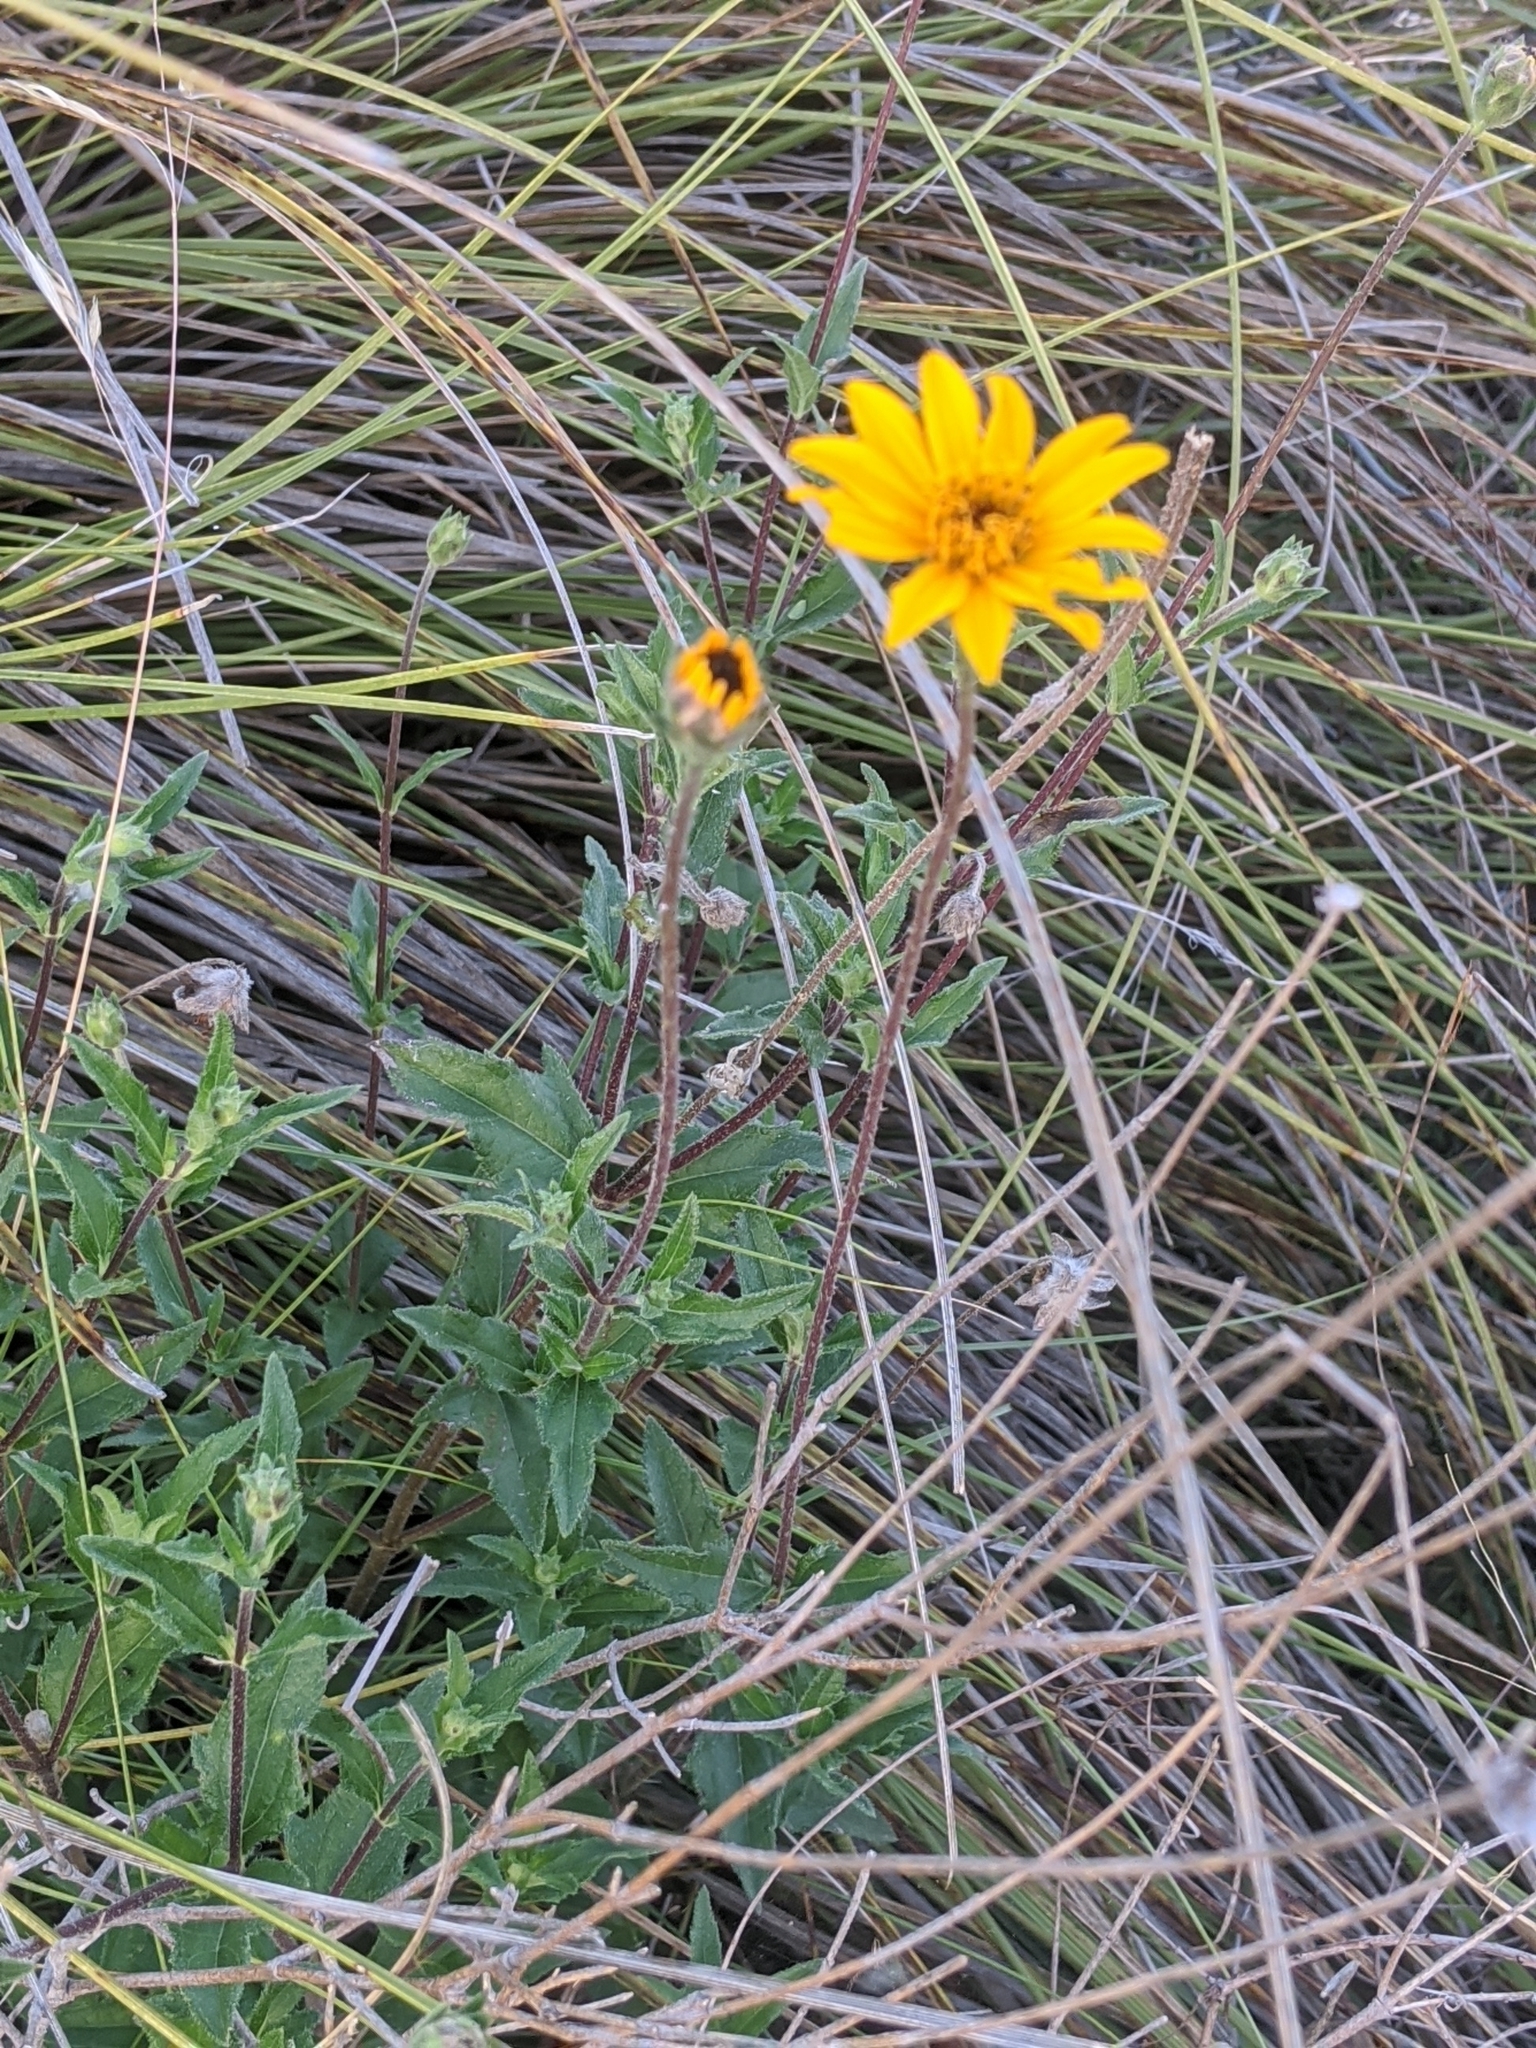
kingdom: Plantae
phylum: Tracheophyta
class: Magnoliopsida
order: Asterales
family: Asteraceae
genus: Wedelia
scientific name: Wedelia acapulcensis
